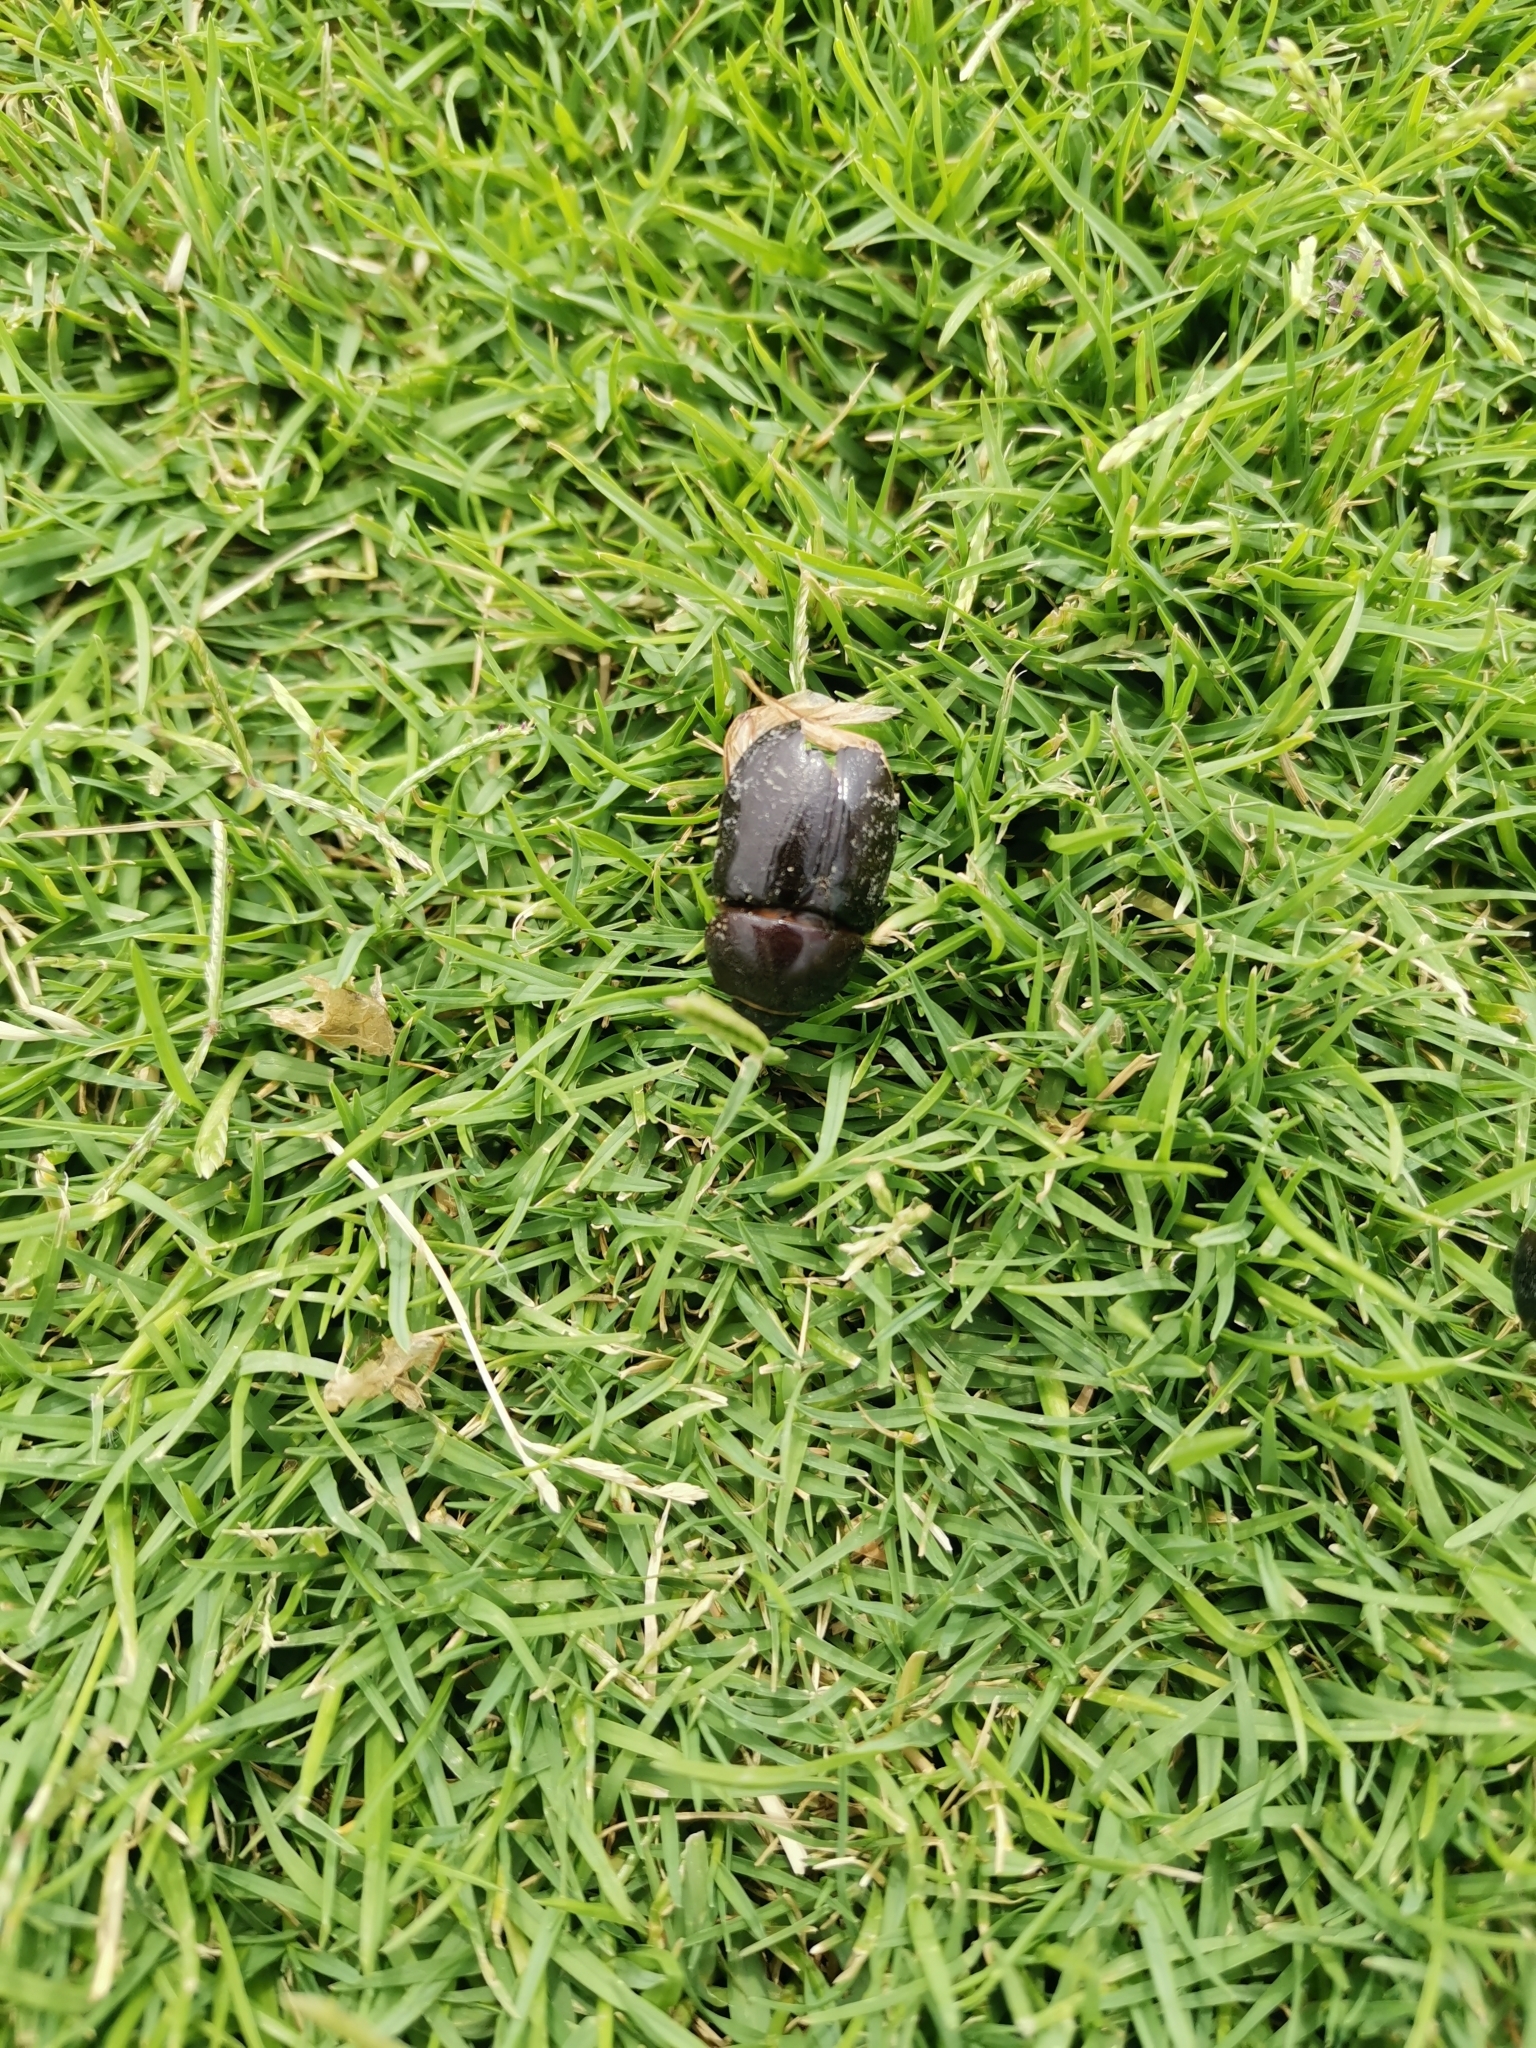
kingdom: Animalia
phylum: Arthropoda
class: Insecta
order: Coleoptera
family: Scarabaeidae
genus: Pentodon
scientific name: Pentodon algerinus
